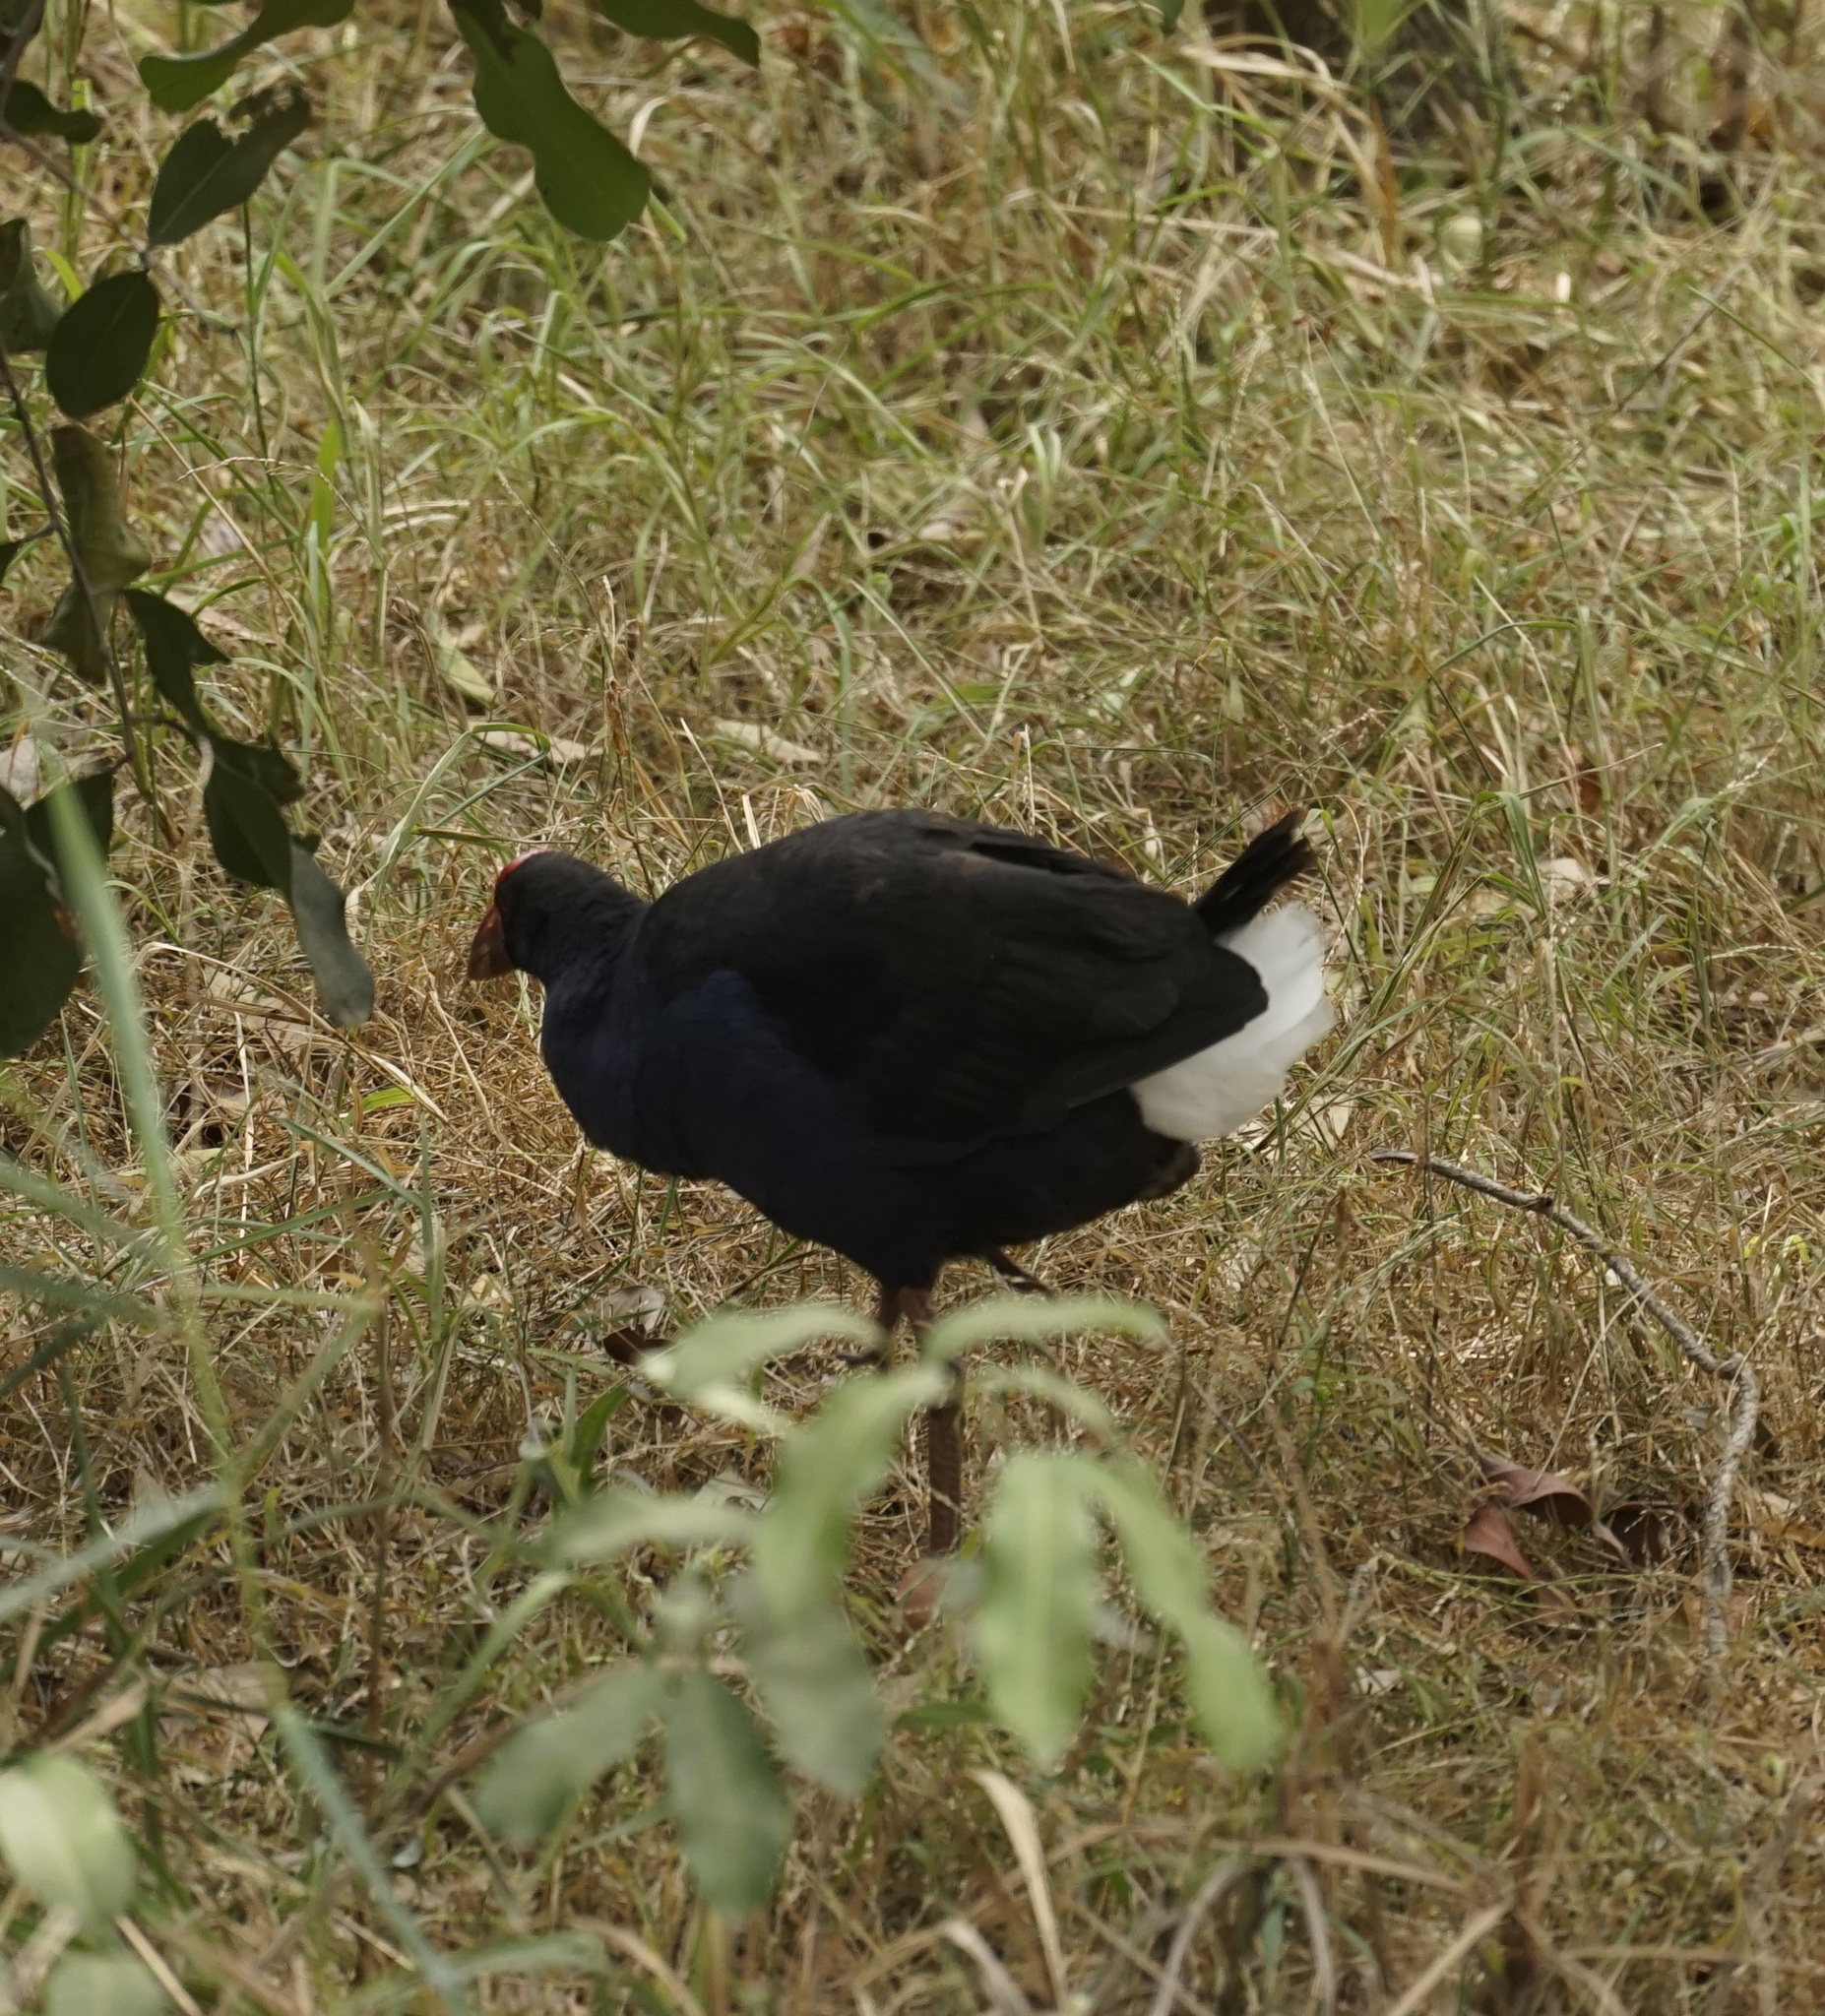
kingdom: Animalia
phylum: Chordata
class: Aves
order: Gruiformes
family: Rallidae
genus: Porphyrio
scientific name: Porphyrio melanotus
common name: Australasian swamphen
